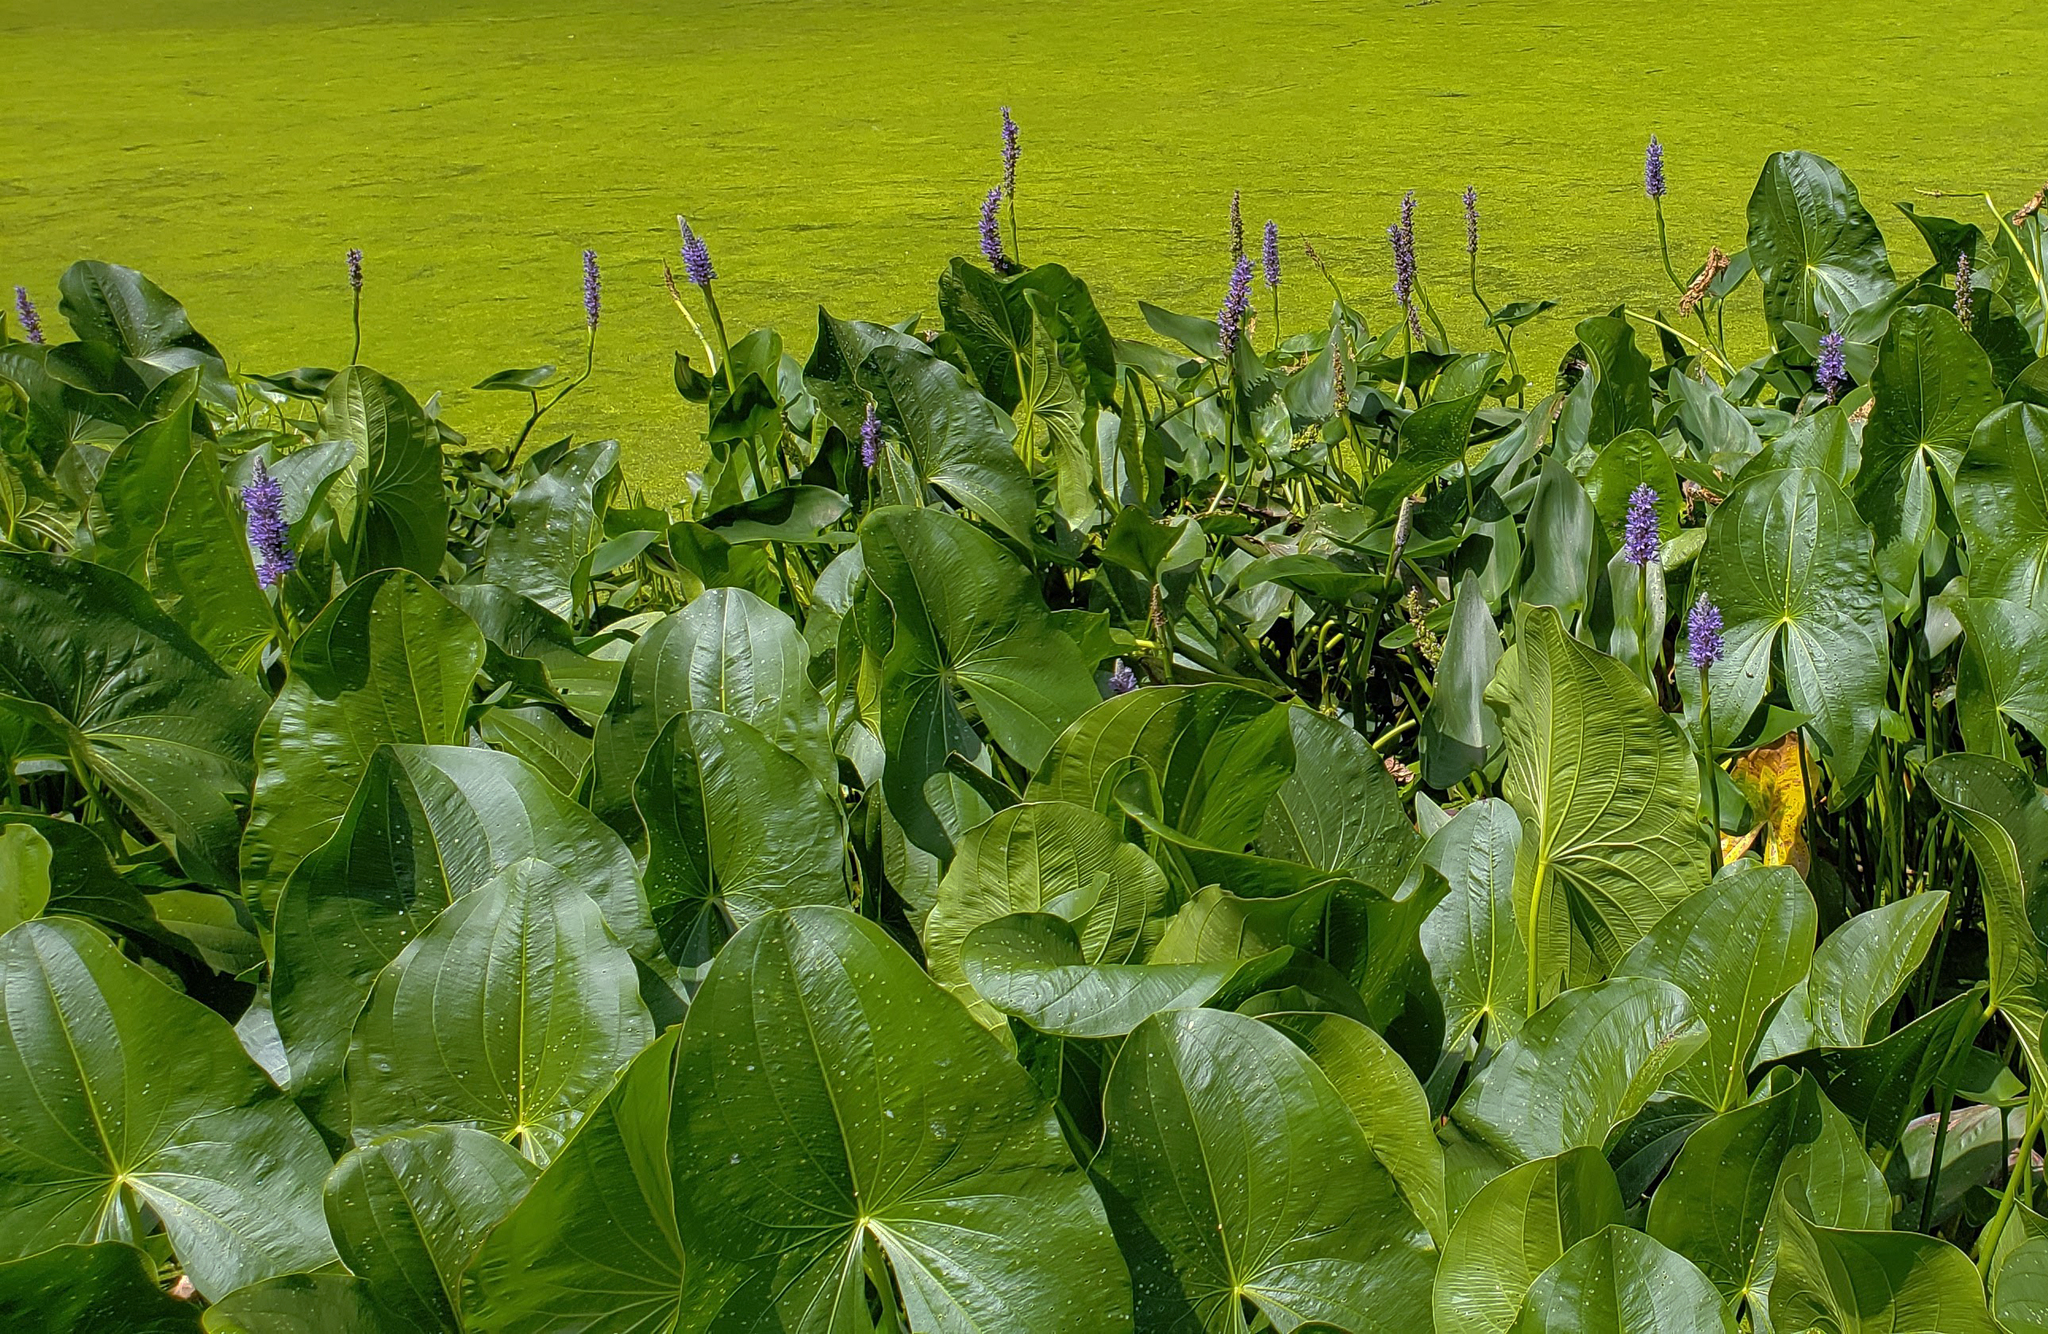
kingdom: Plantae
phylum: Tracheophyta
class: Liliopsida
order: Commelinales
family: Pontederiaceae
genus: Pontederia
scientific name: Pontederia cordata
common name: Pickerelweed
